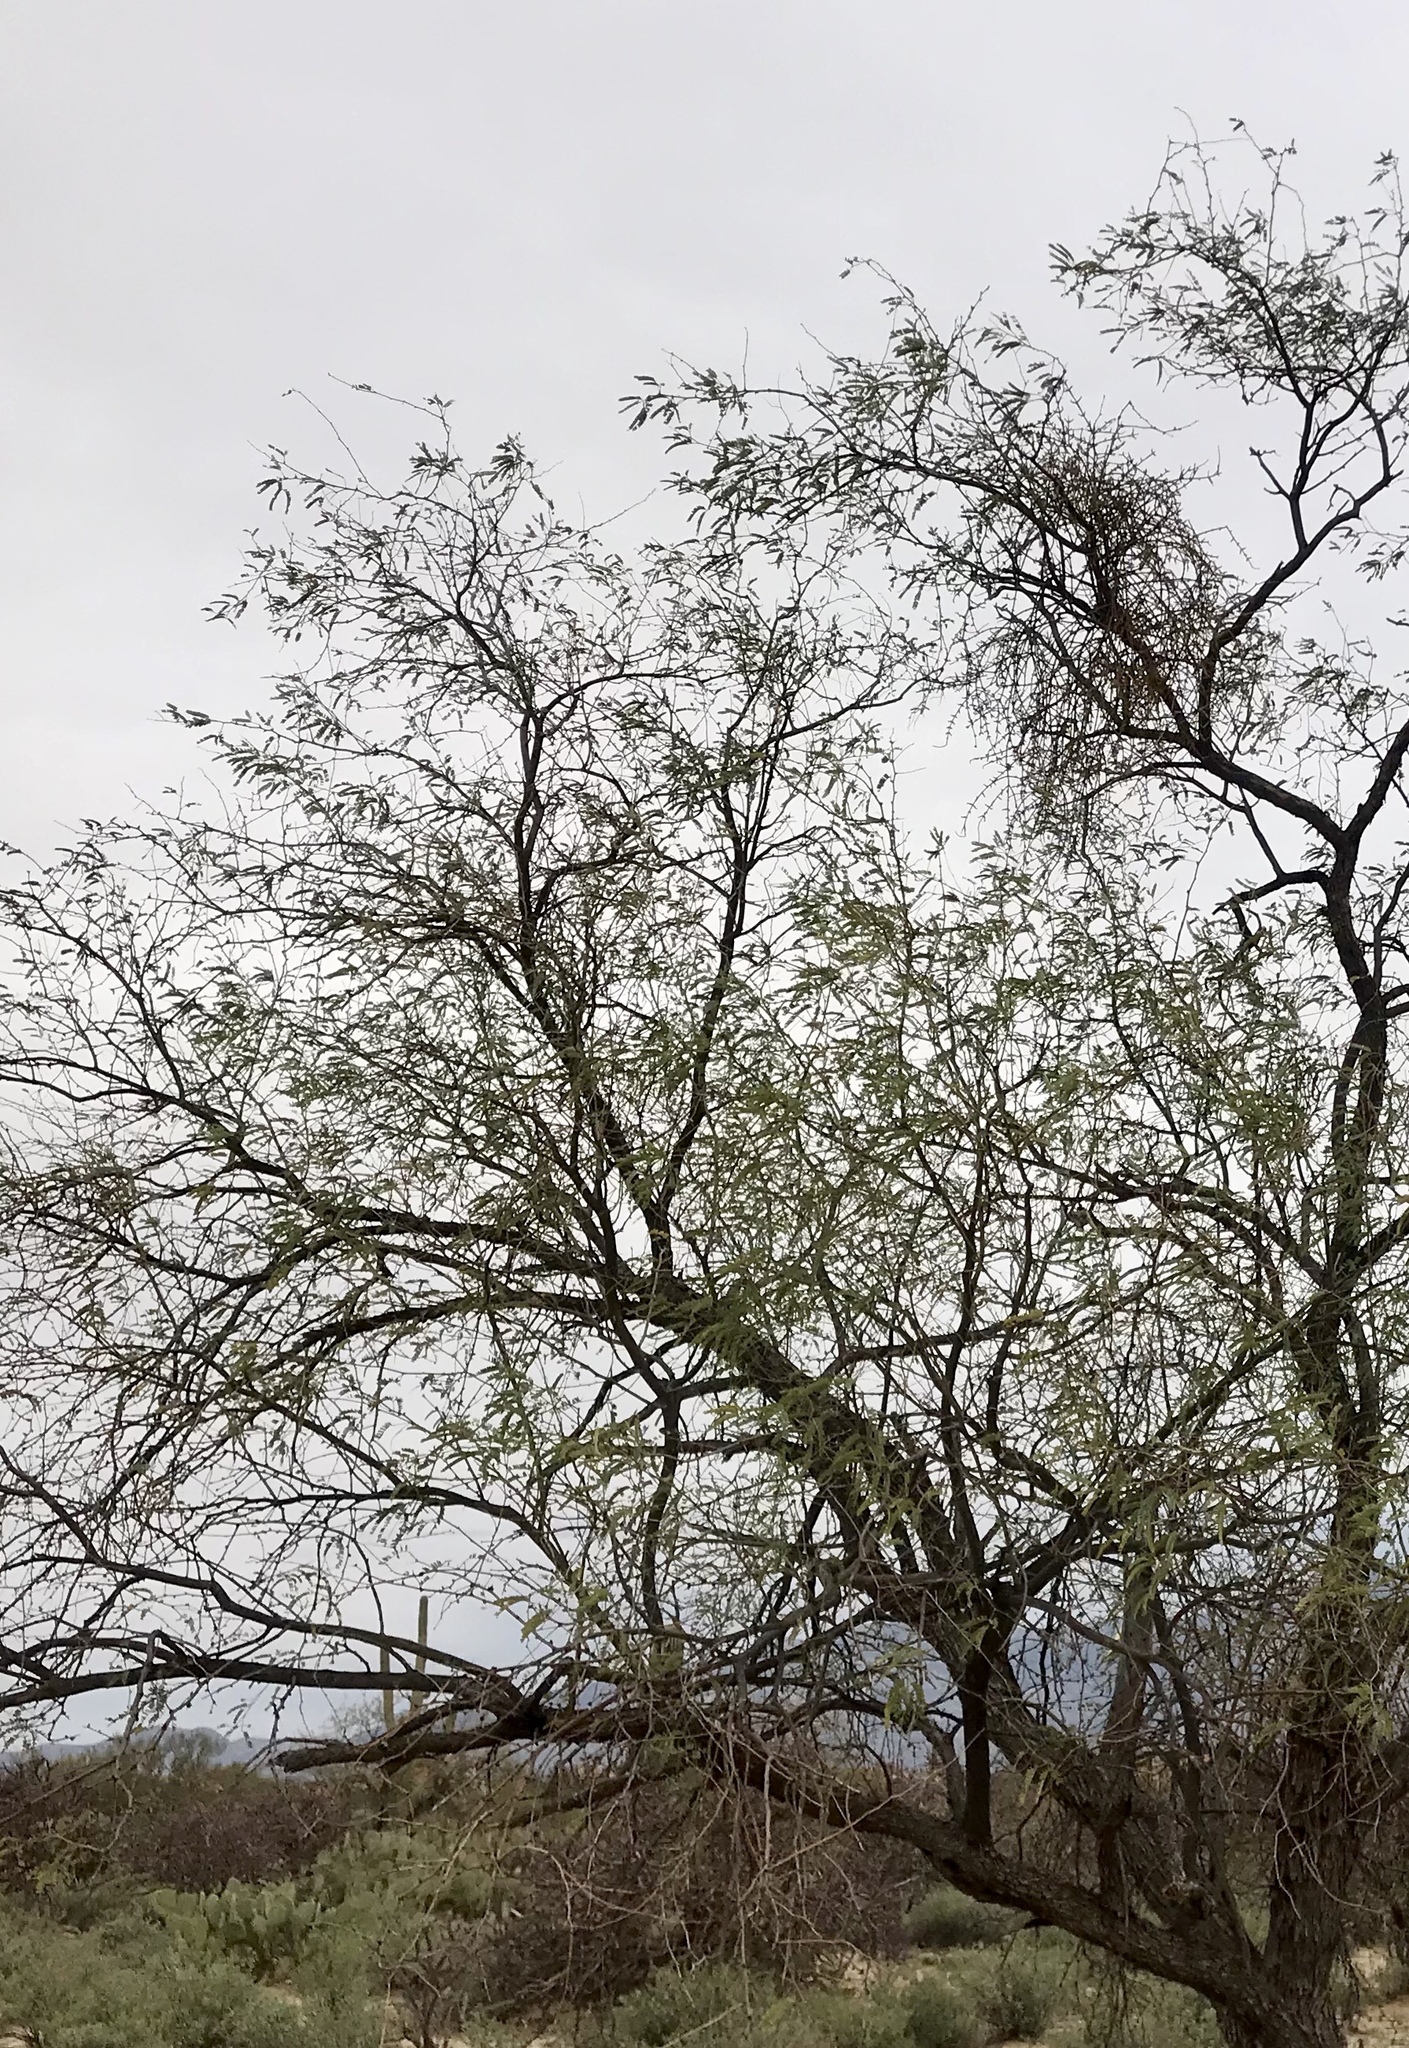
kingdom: Plantae
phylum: Tracheophyta
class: Magnoliopsida
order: Fabales
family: Fabaceae
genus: Prosopis
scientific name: Prosopis velutina
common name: Velvet mesquite
